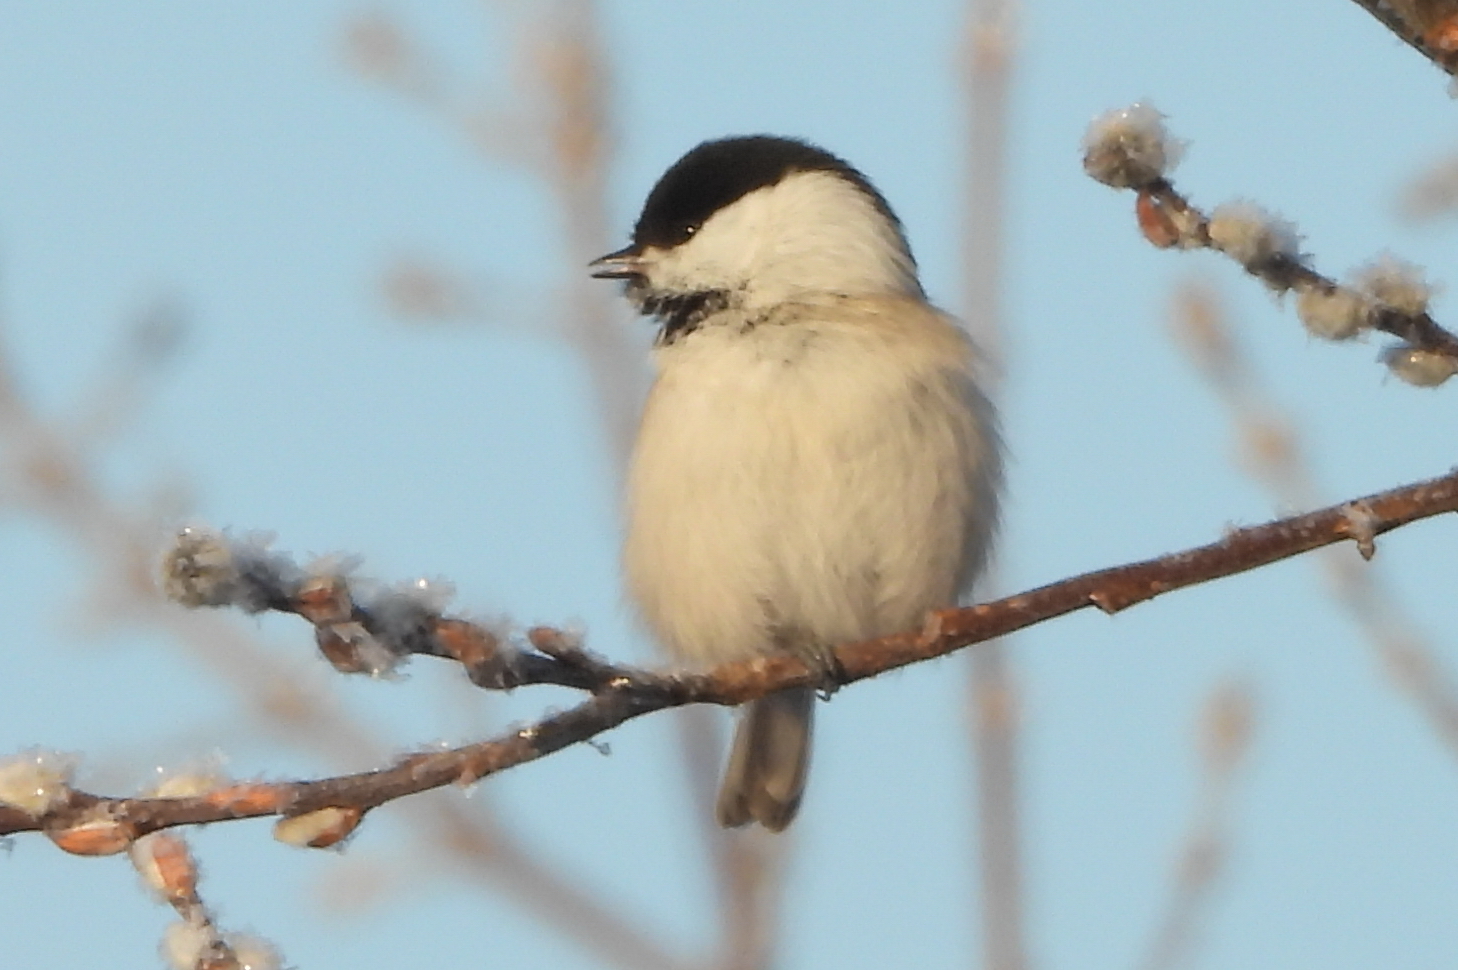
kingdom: Animalia
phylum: Chordata
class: Aves
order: Passeriformes
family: Paridae
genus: Poecile
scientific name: Poecile montanus
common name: Willow tit
